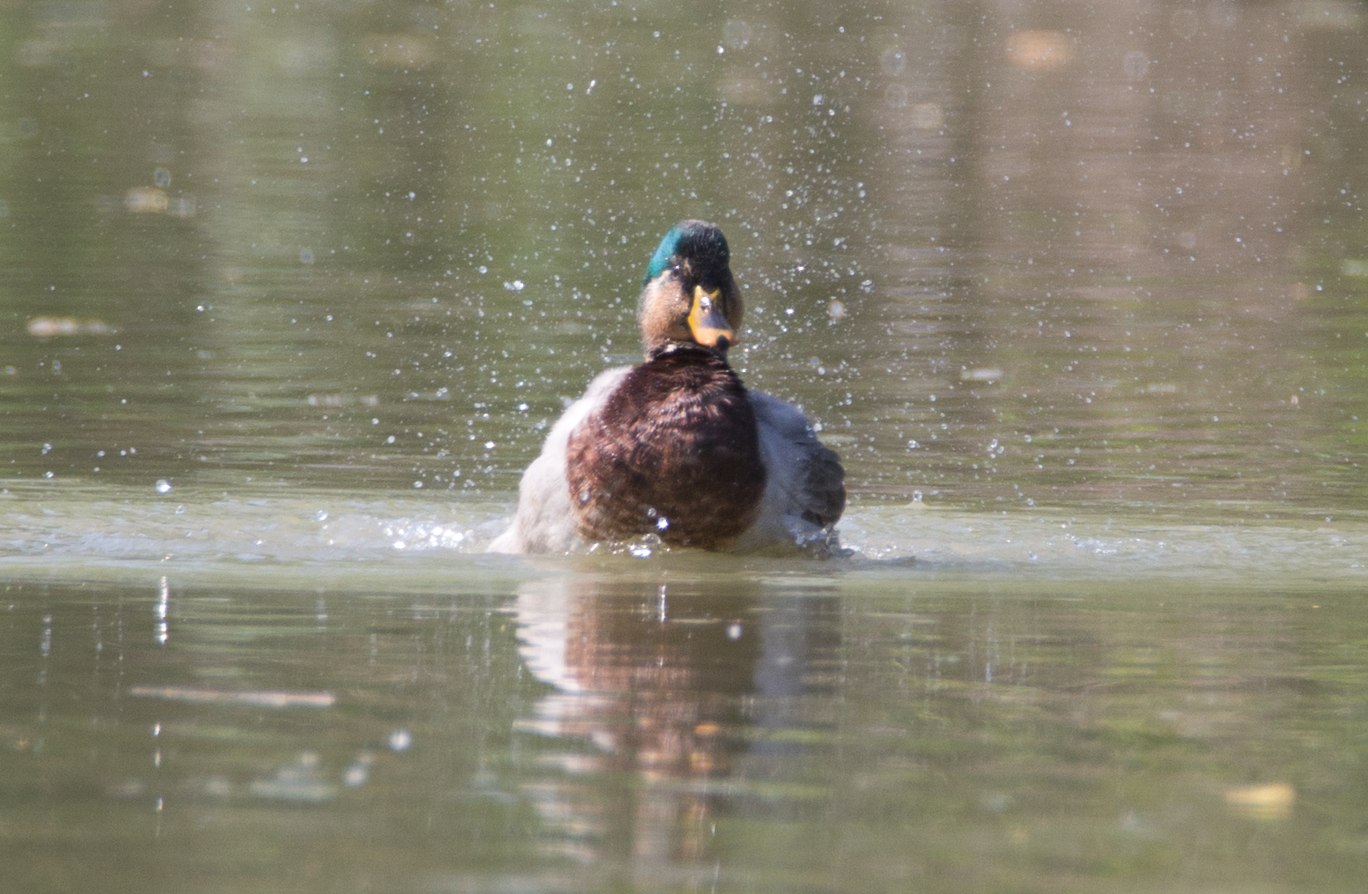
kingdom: Animalia
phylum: Chordata
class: Aves
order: Anseriformes
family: Anatidae
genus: Anas
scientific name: Anas platyrhynchos
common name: Mallard
